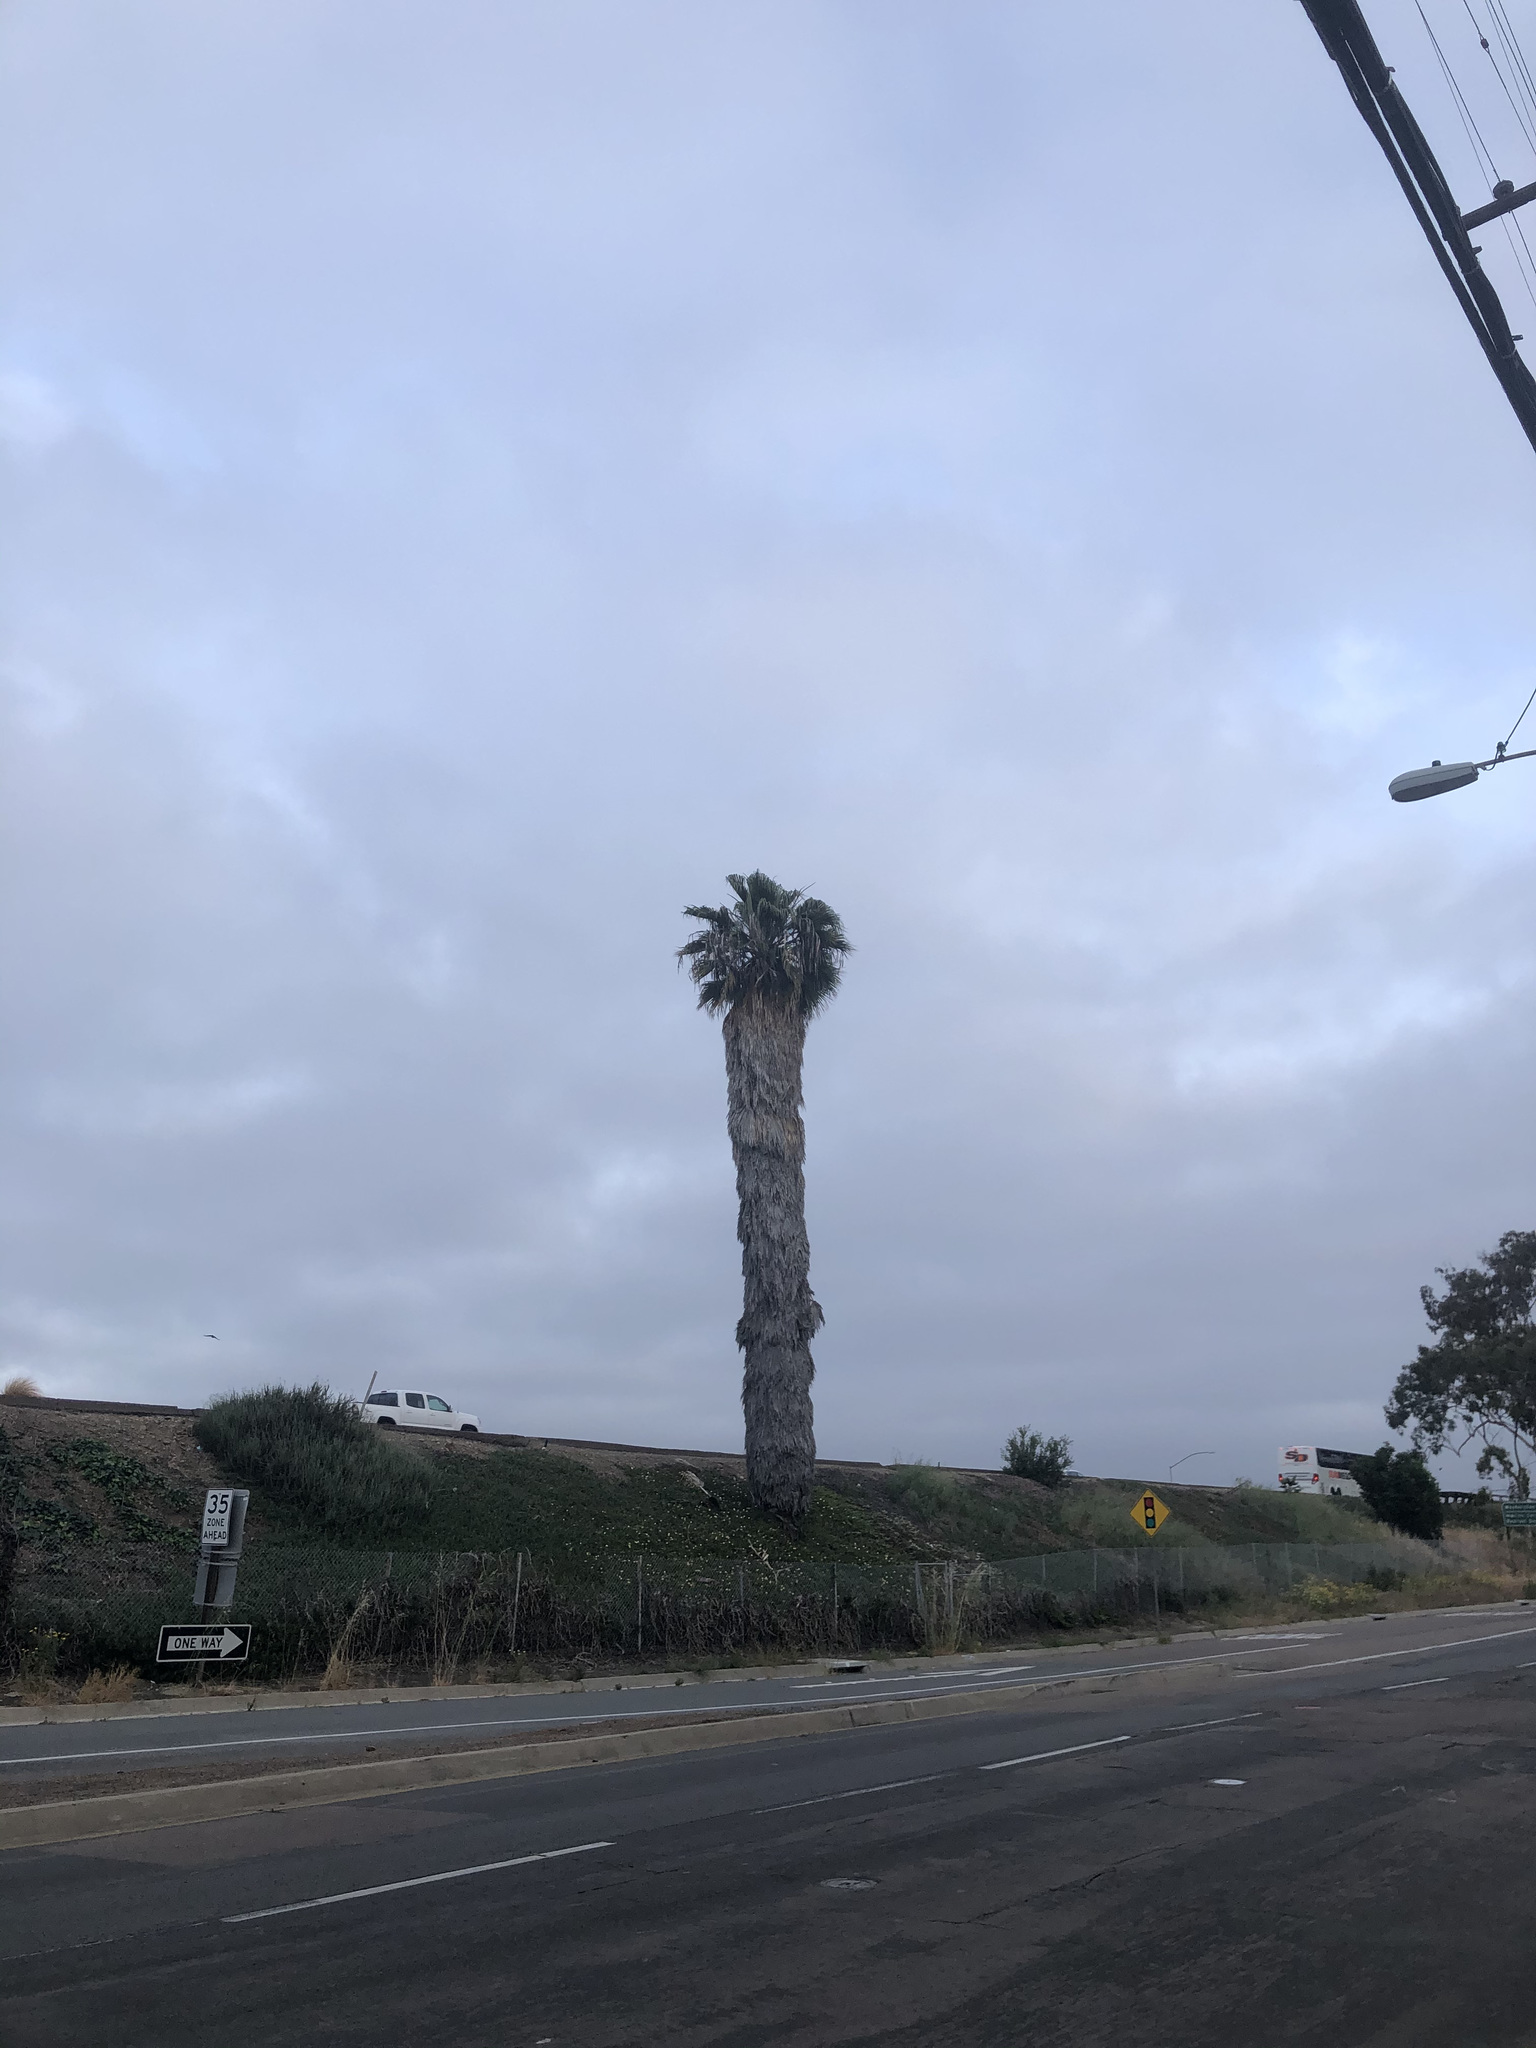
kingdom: Plantae
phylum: Tracheophyta
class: Liliopsida
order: Arecales
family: Arecaceae
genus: Washingtonia
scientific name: Washingtonia robusta
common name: Mexican fan palm
